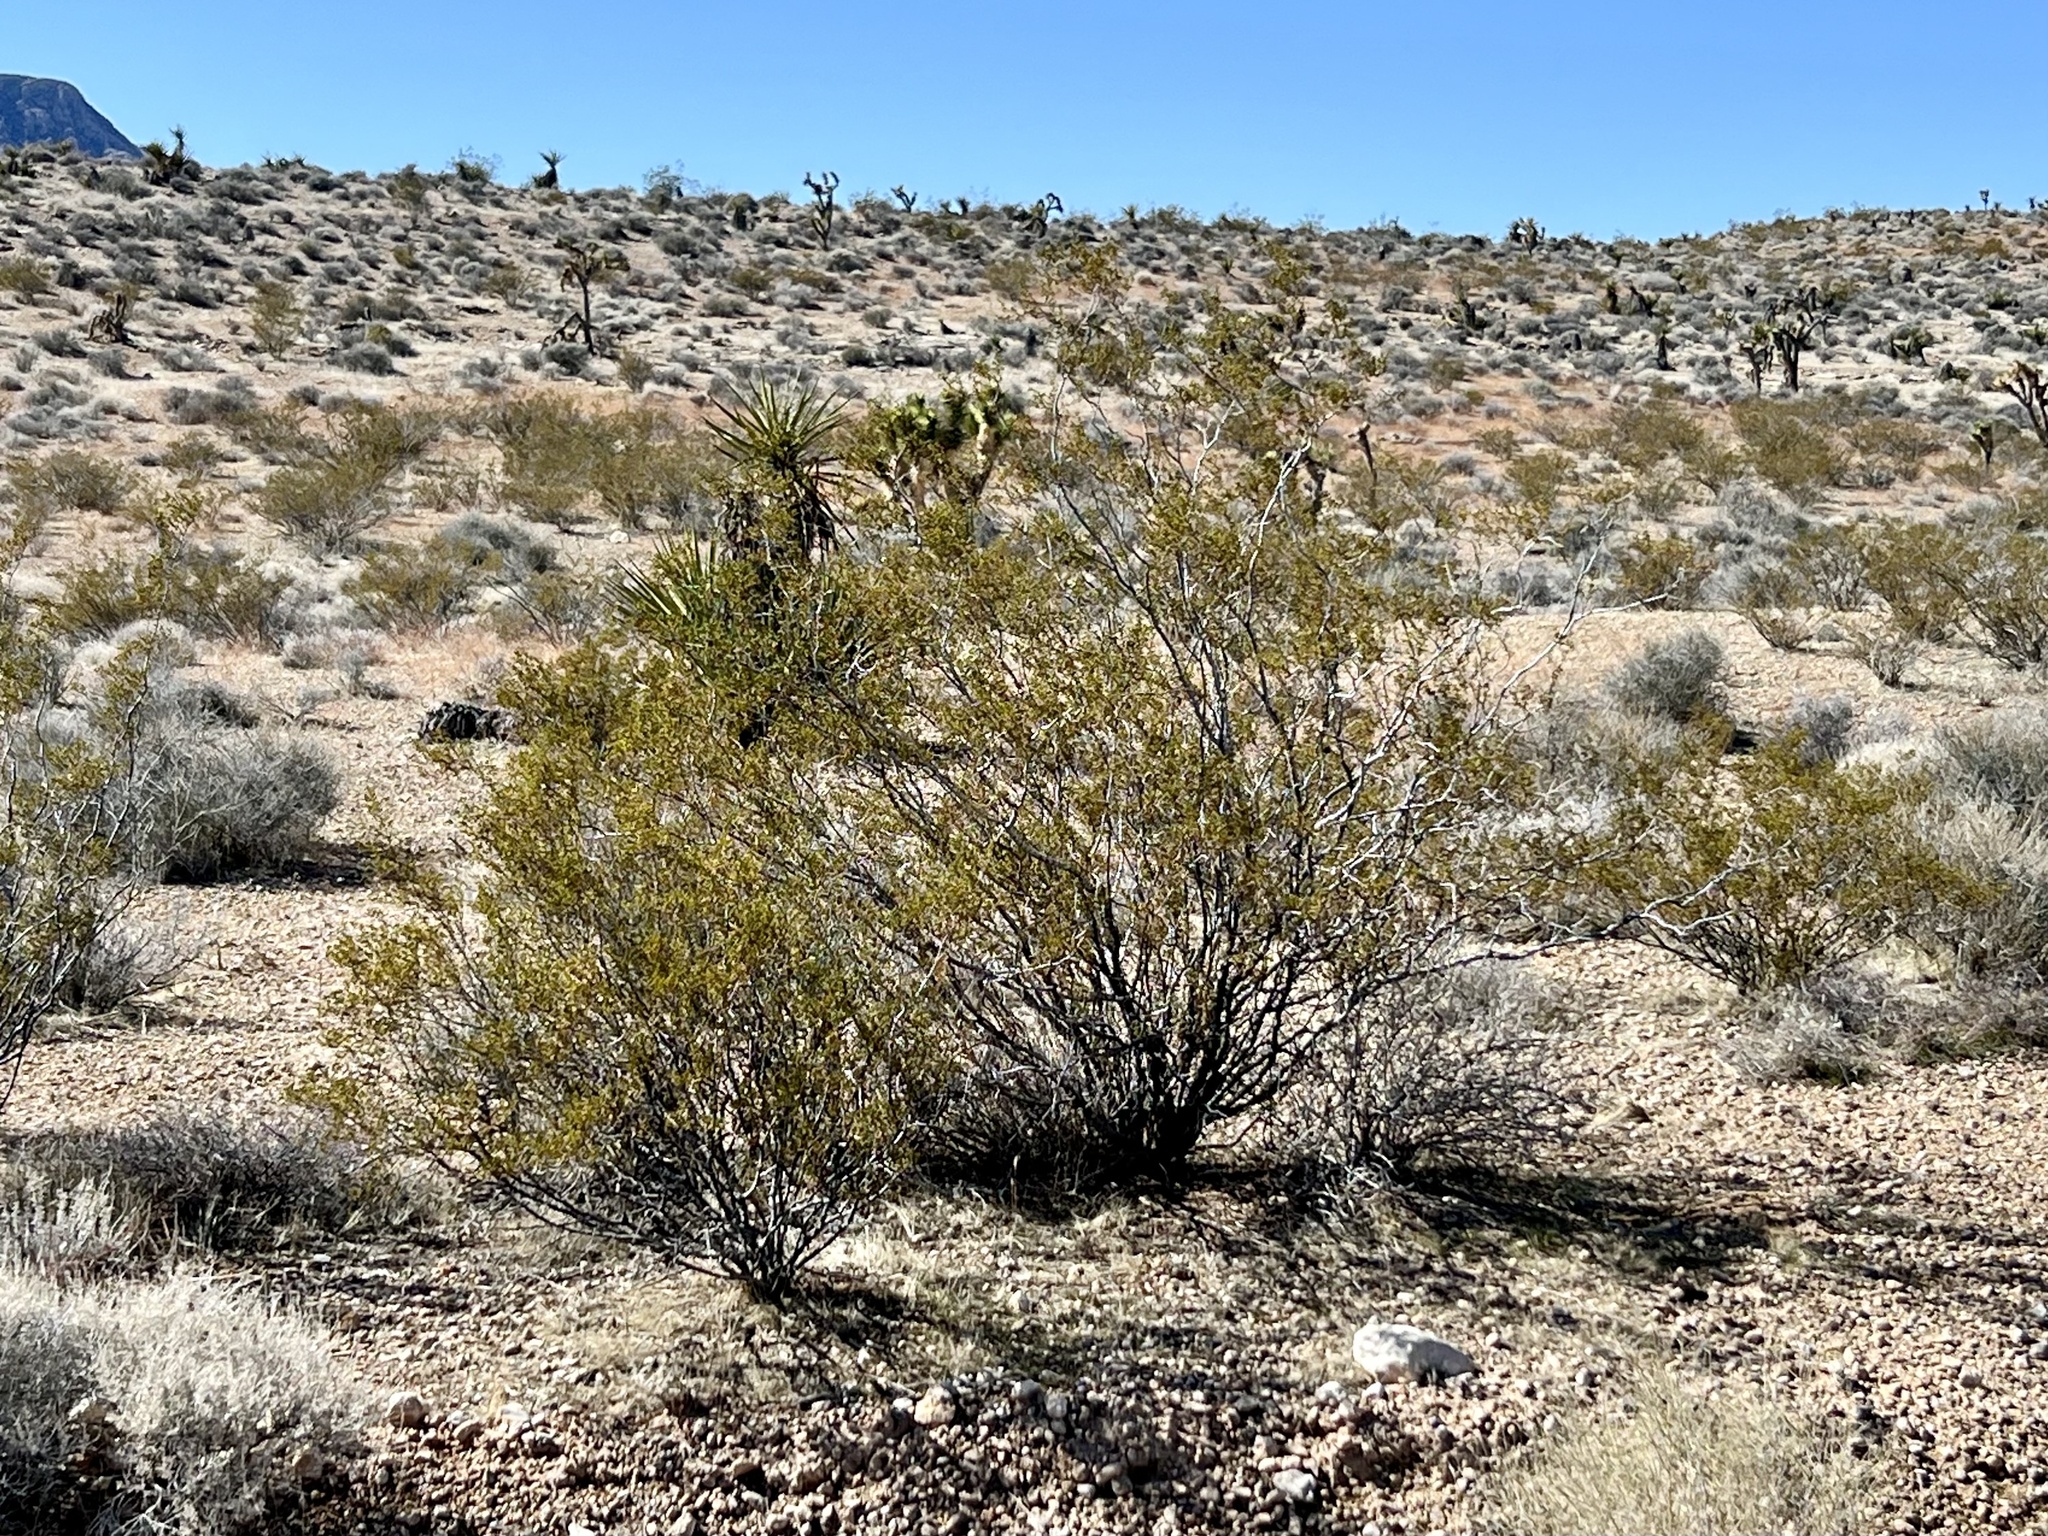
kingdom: Plantae
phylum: Tracheophyta
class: Magnoliopsida
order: Zygophyllales
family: Zygophyllaceae
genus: Larrea
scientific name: Larrea tridentata
